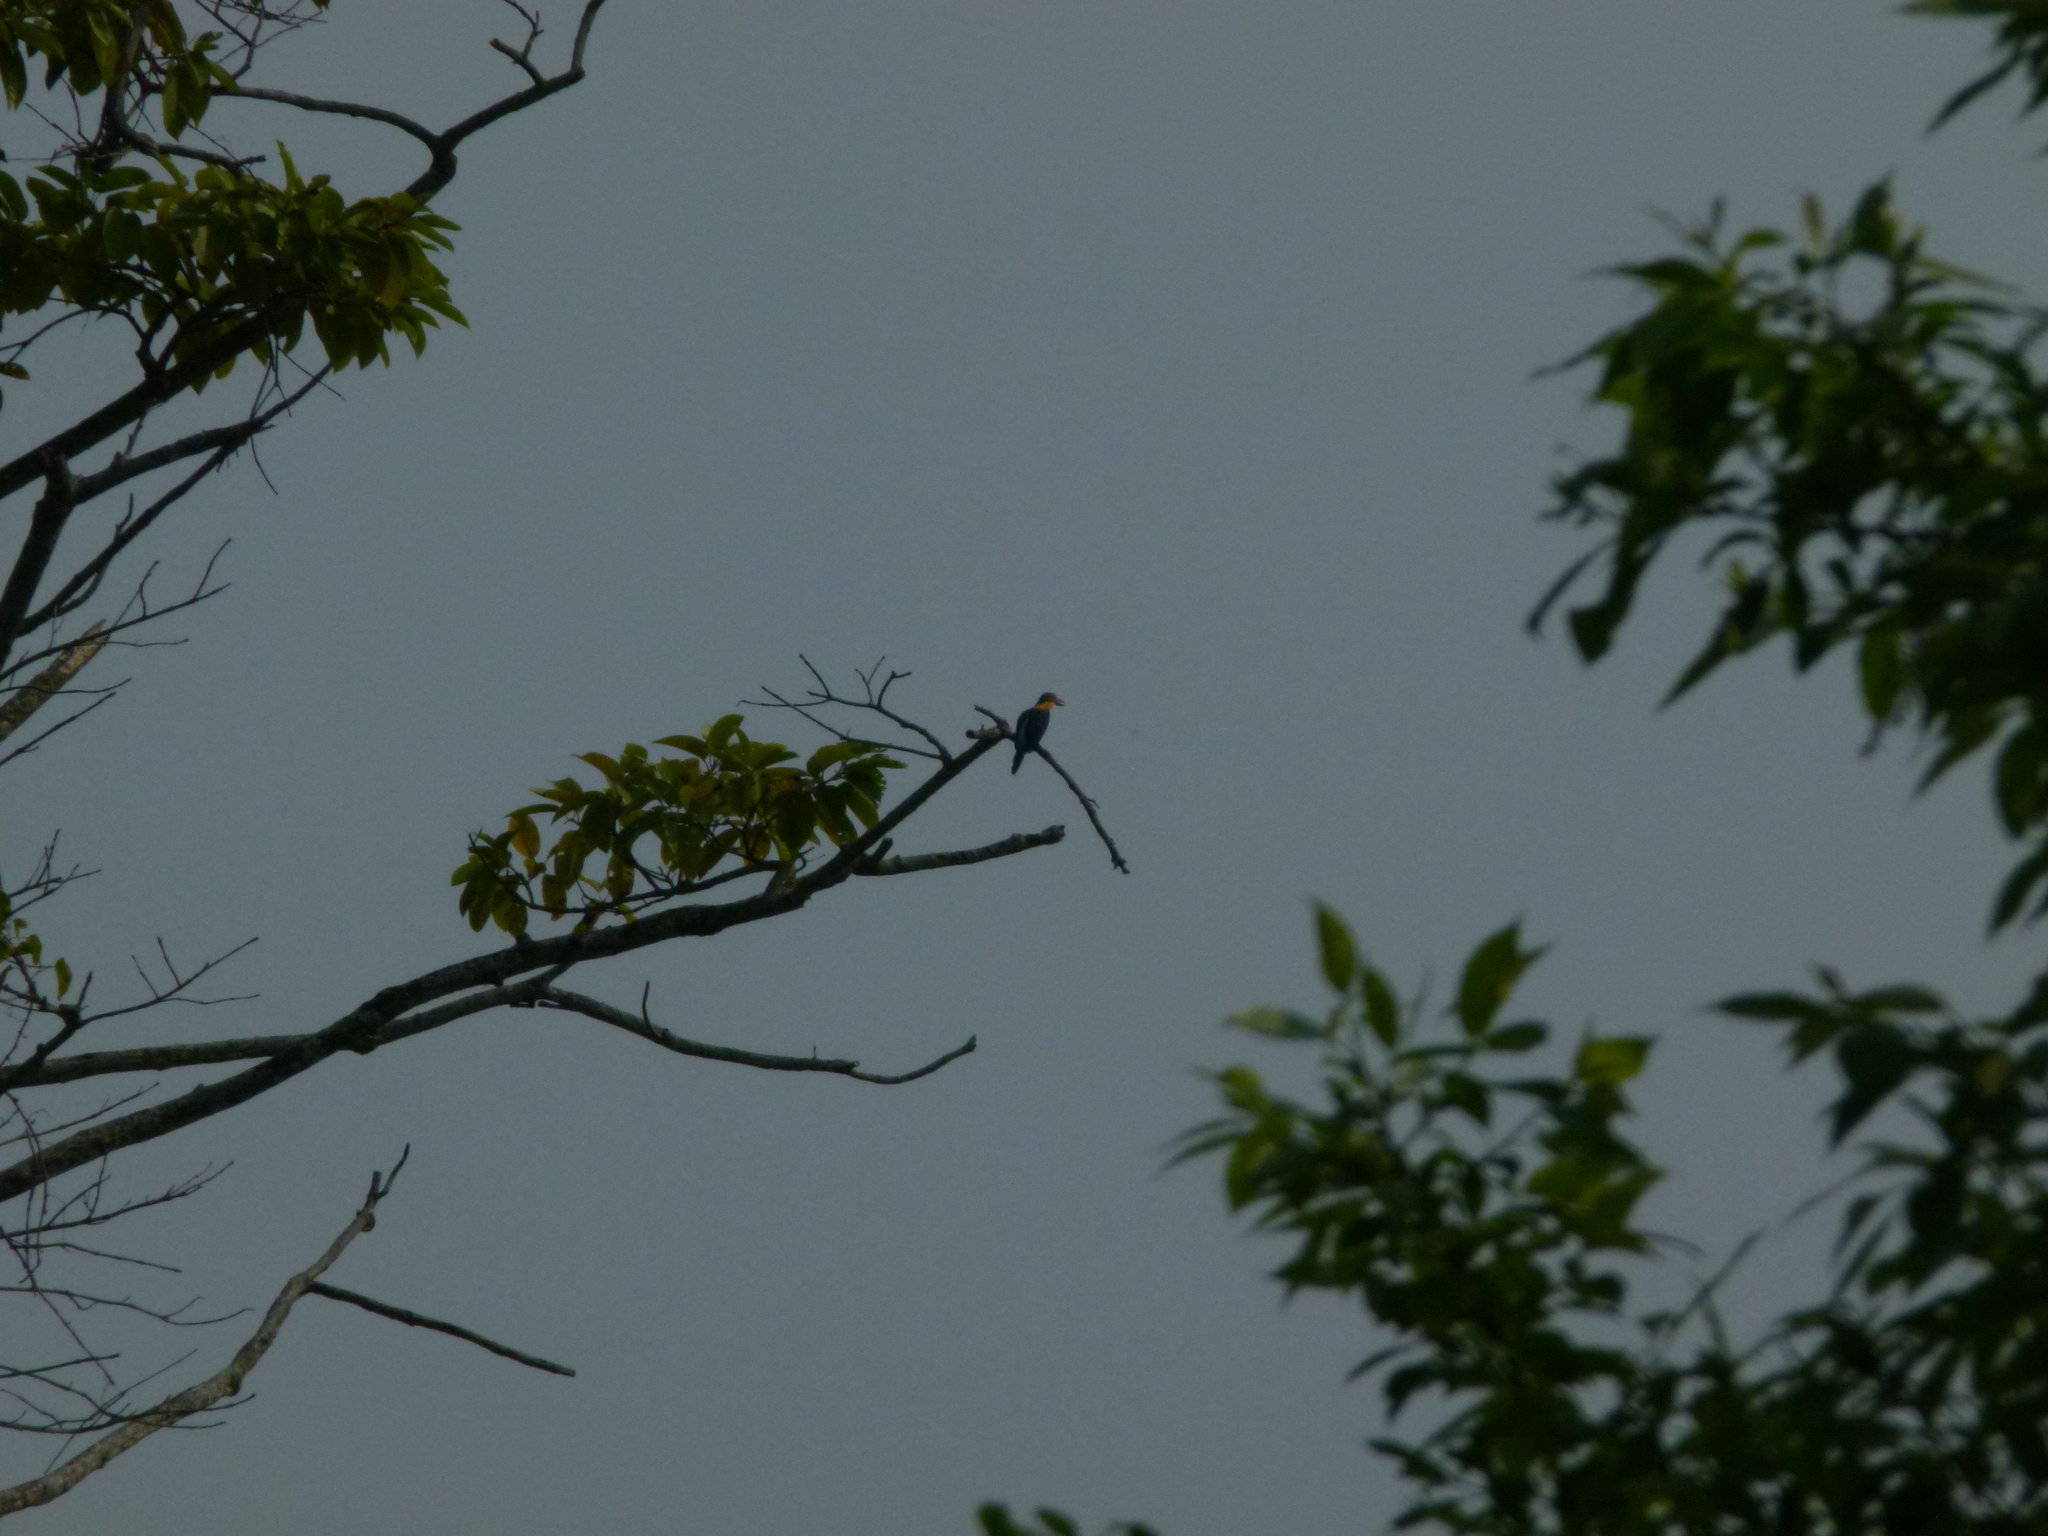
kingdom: Animalia
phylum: Chordata
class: Aves
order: Coraciiformes
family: Alcedinidae
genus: Pelargopsis
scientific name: Pelargopsis capensis
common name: Stork-billed kingfisher
